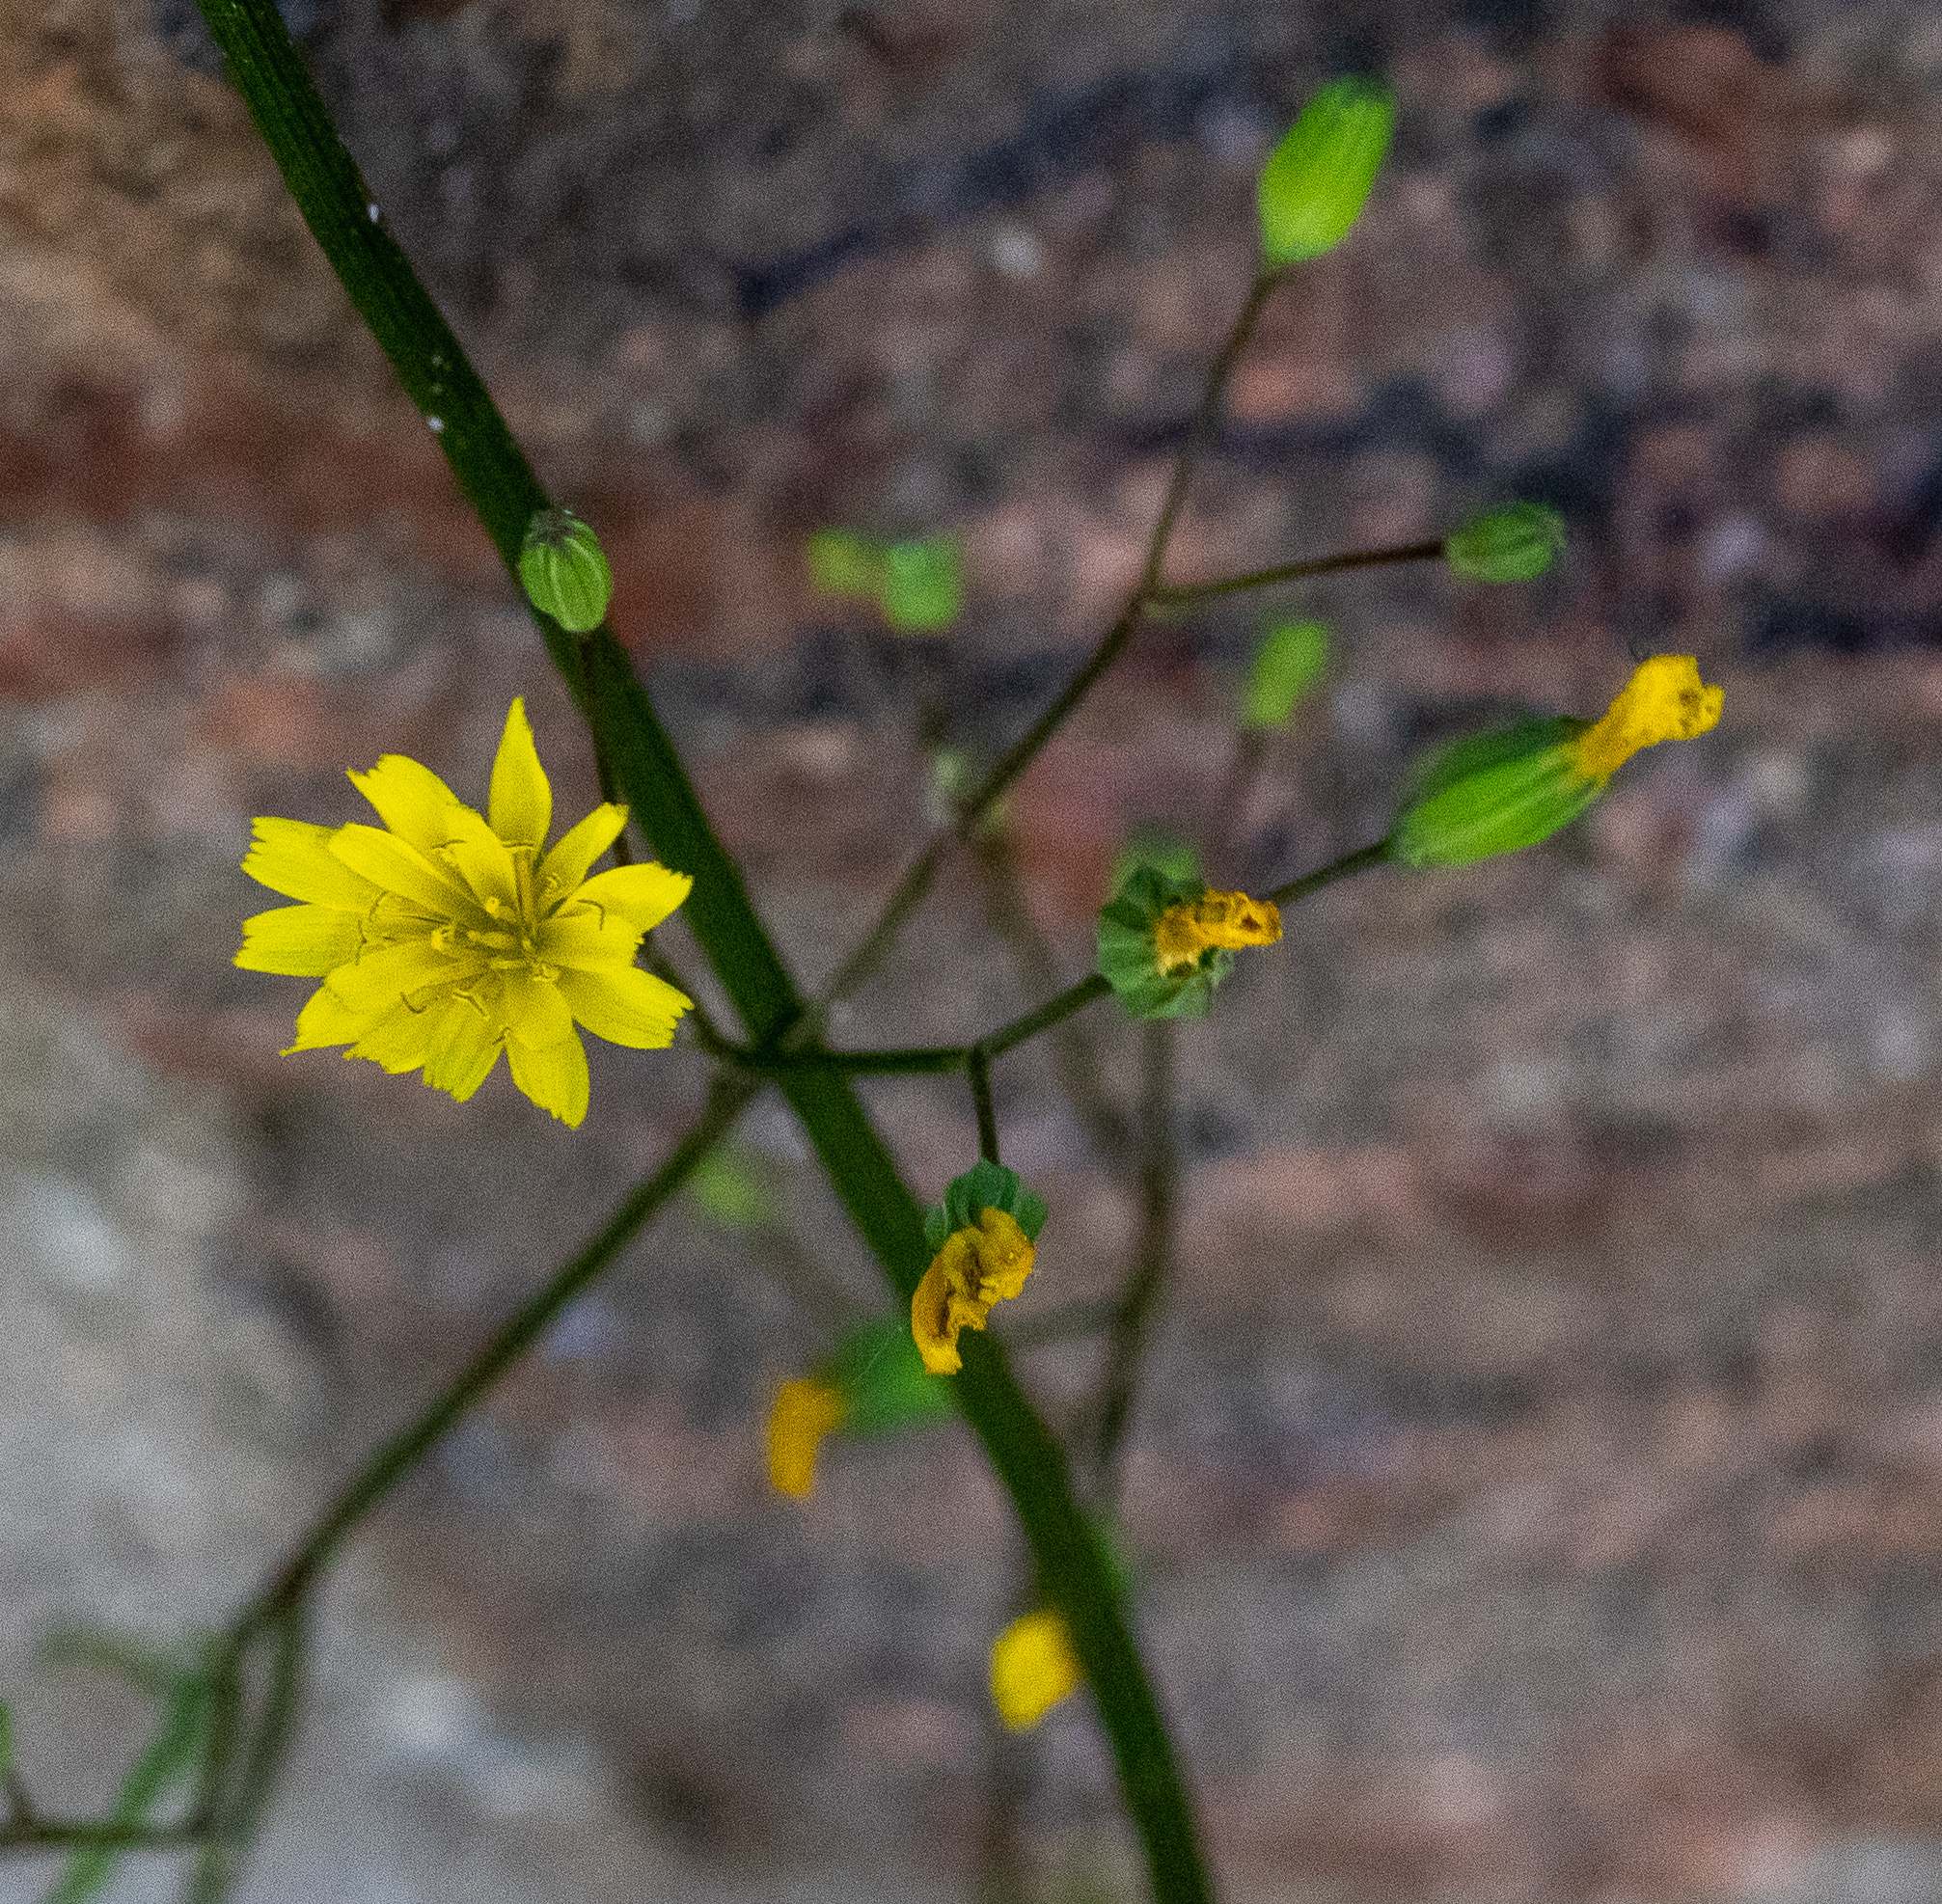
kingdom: Plantae
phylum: Tracheophyta
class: Magnoliopsida
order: Asterales
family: Asteraceae
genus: Lapsana
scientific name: Lapsana communis
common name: Nipplewort
